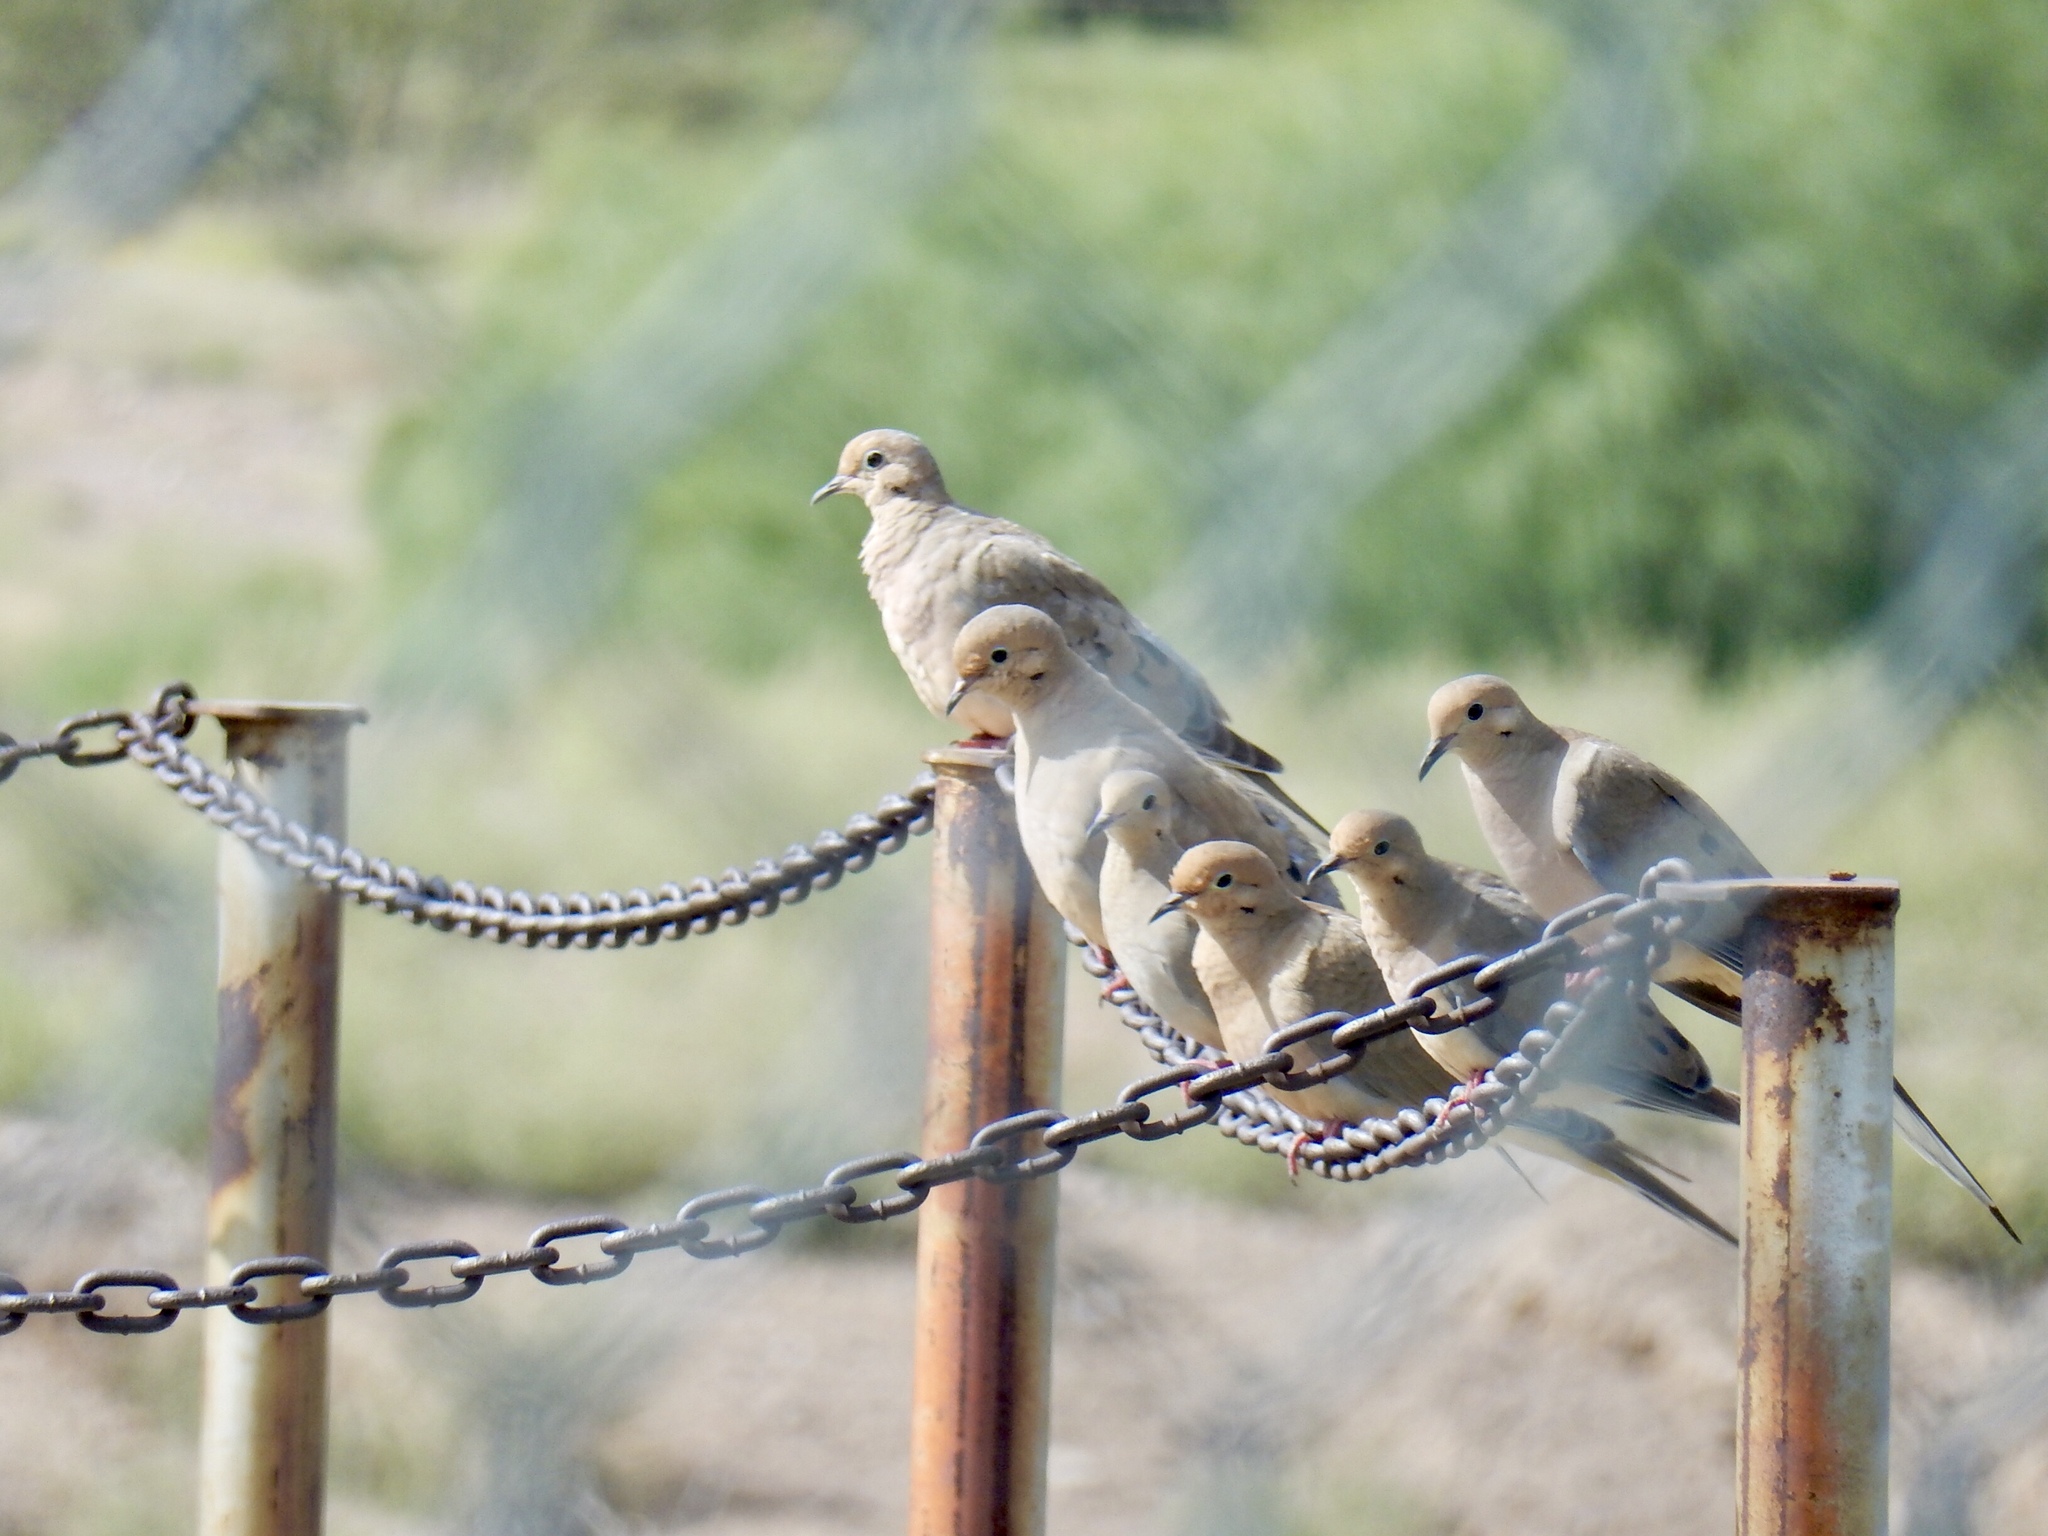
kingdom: Animalia
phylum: Chordata
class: Aves
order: Columbiformes
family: Columbidae
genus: Zenaida
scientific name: Zenaida macroura
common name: Mourning dove
